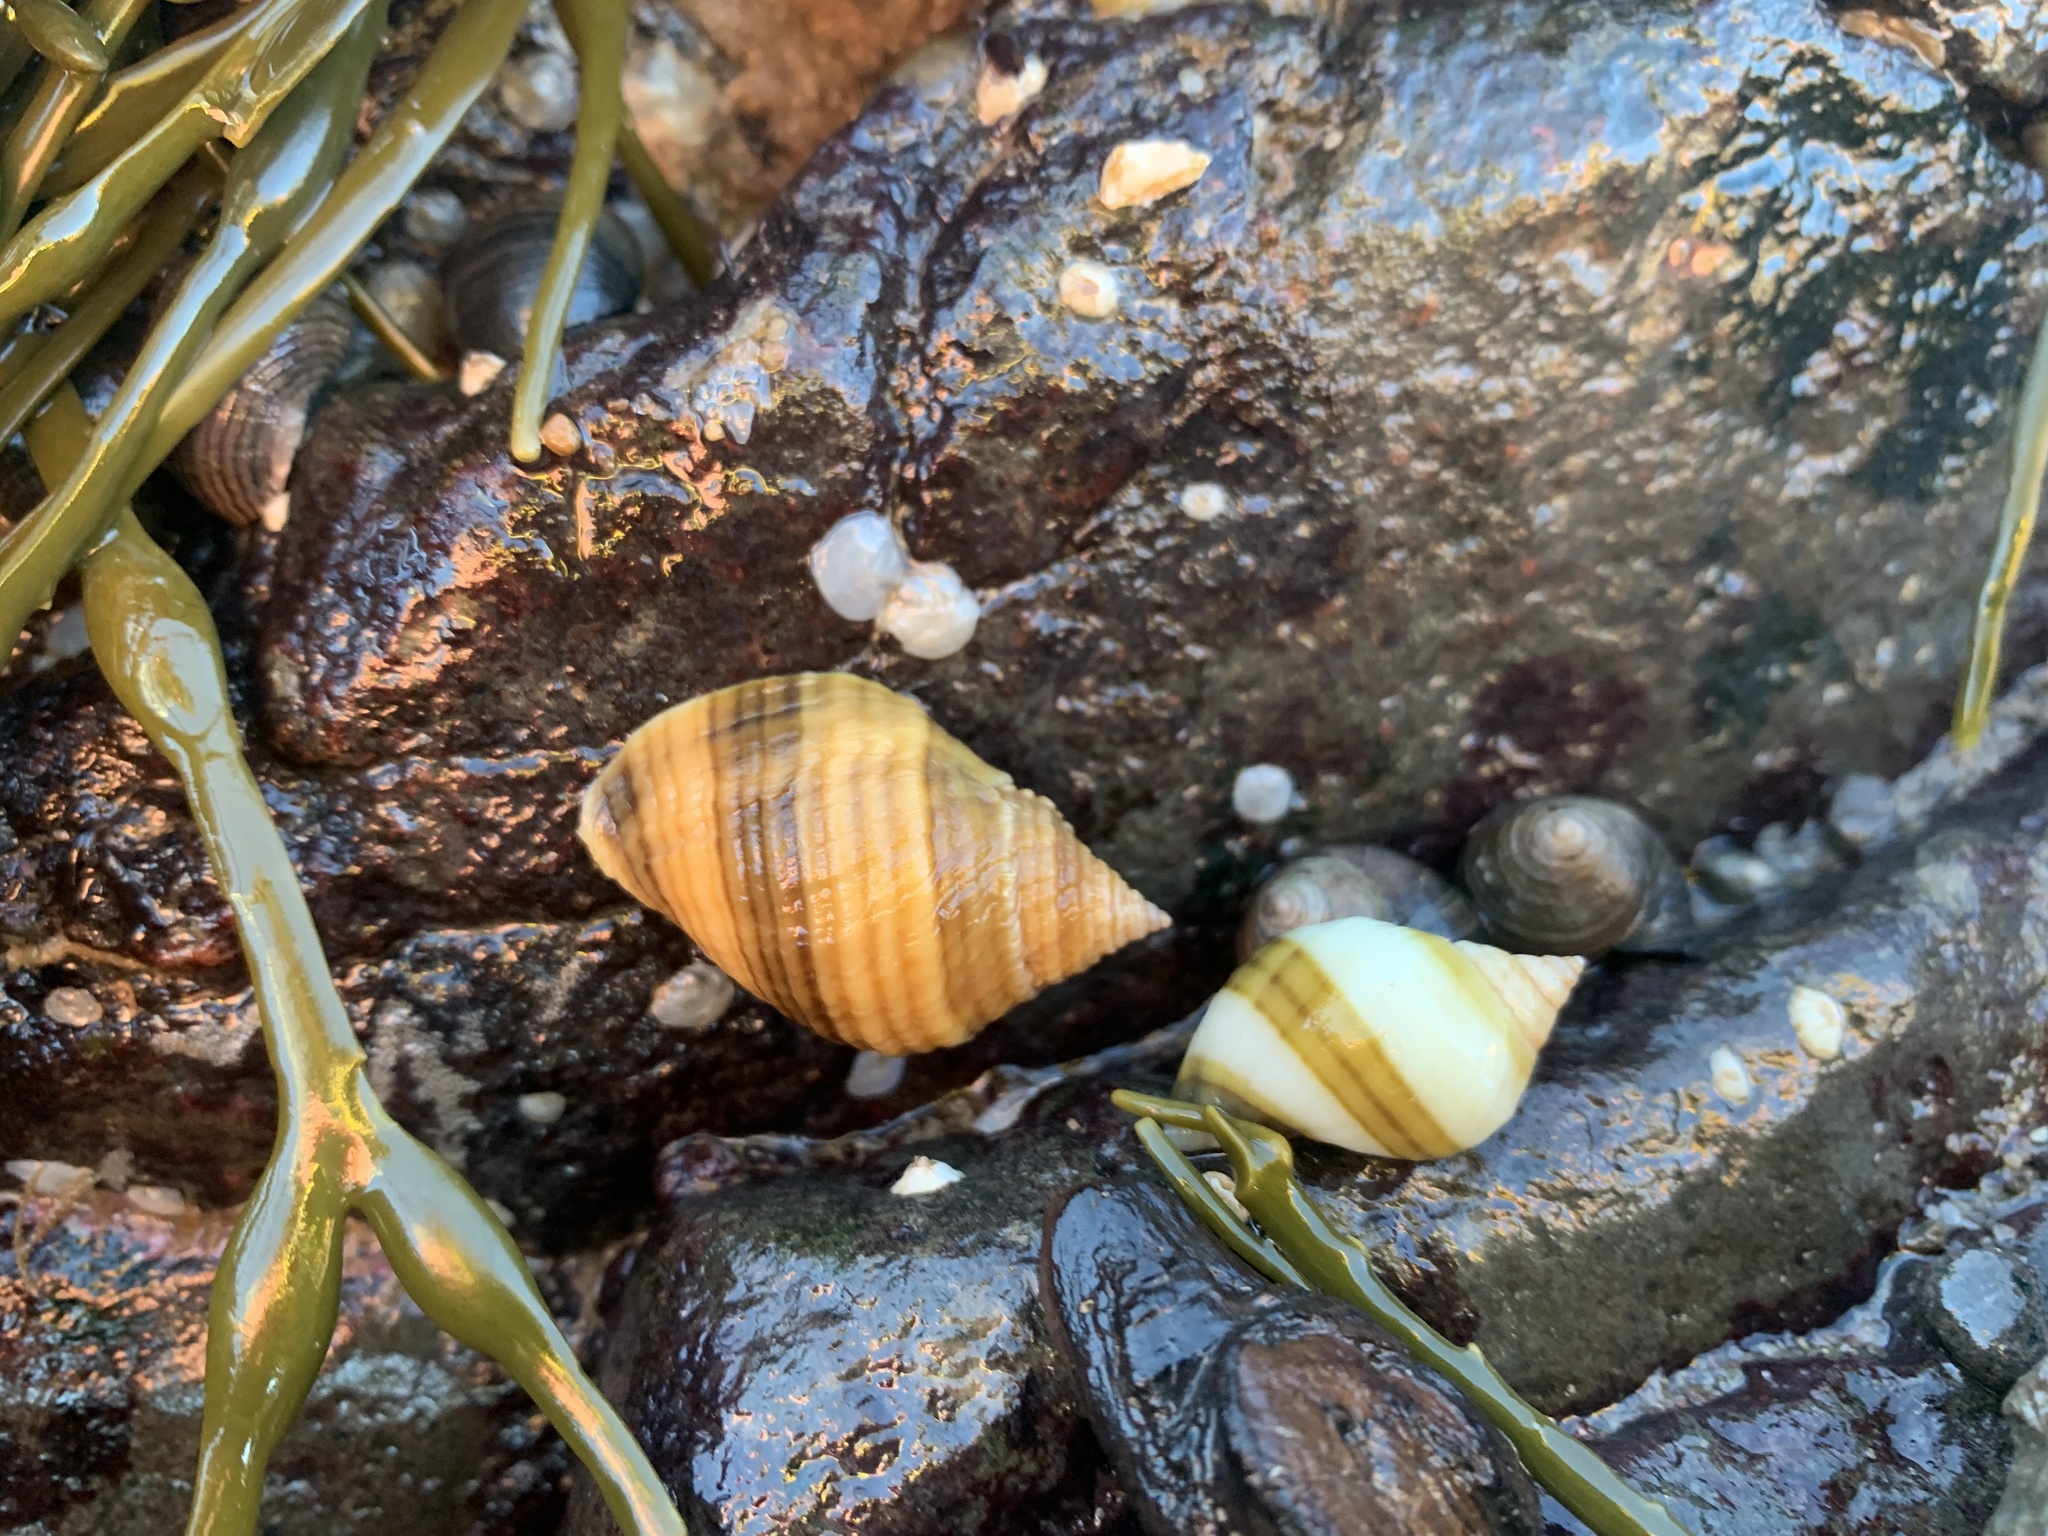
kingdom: Animalia
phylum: Mollusca
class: Gastropoda
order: Neogastropoda
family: Muricidae
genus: Nucella
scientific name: Nucella lapillus
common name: Dog whelk
